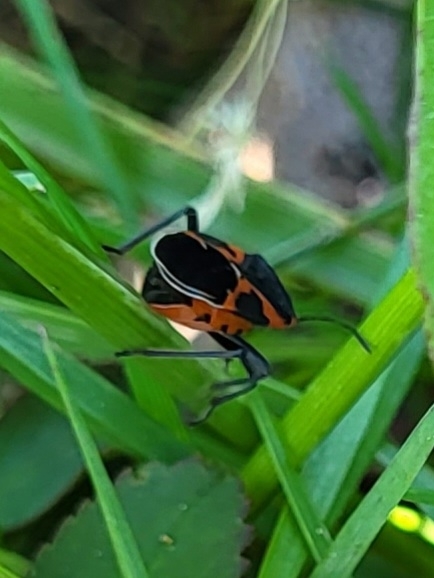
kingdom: Animalia
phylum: Arthropoda
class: Insecta
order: Hemiptera
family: Lygaeidae
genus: Lygaeus
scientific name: Lygaeus kalmii
